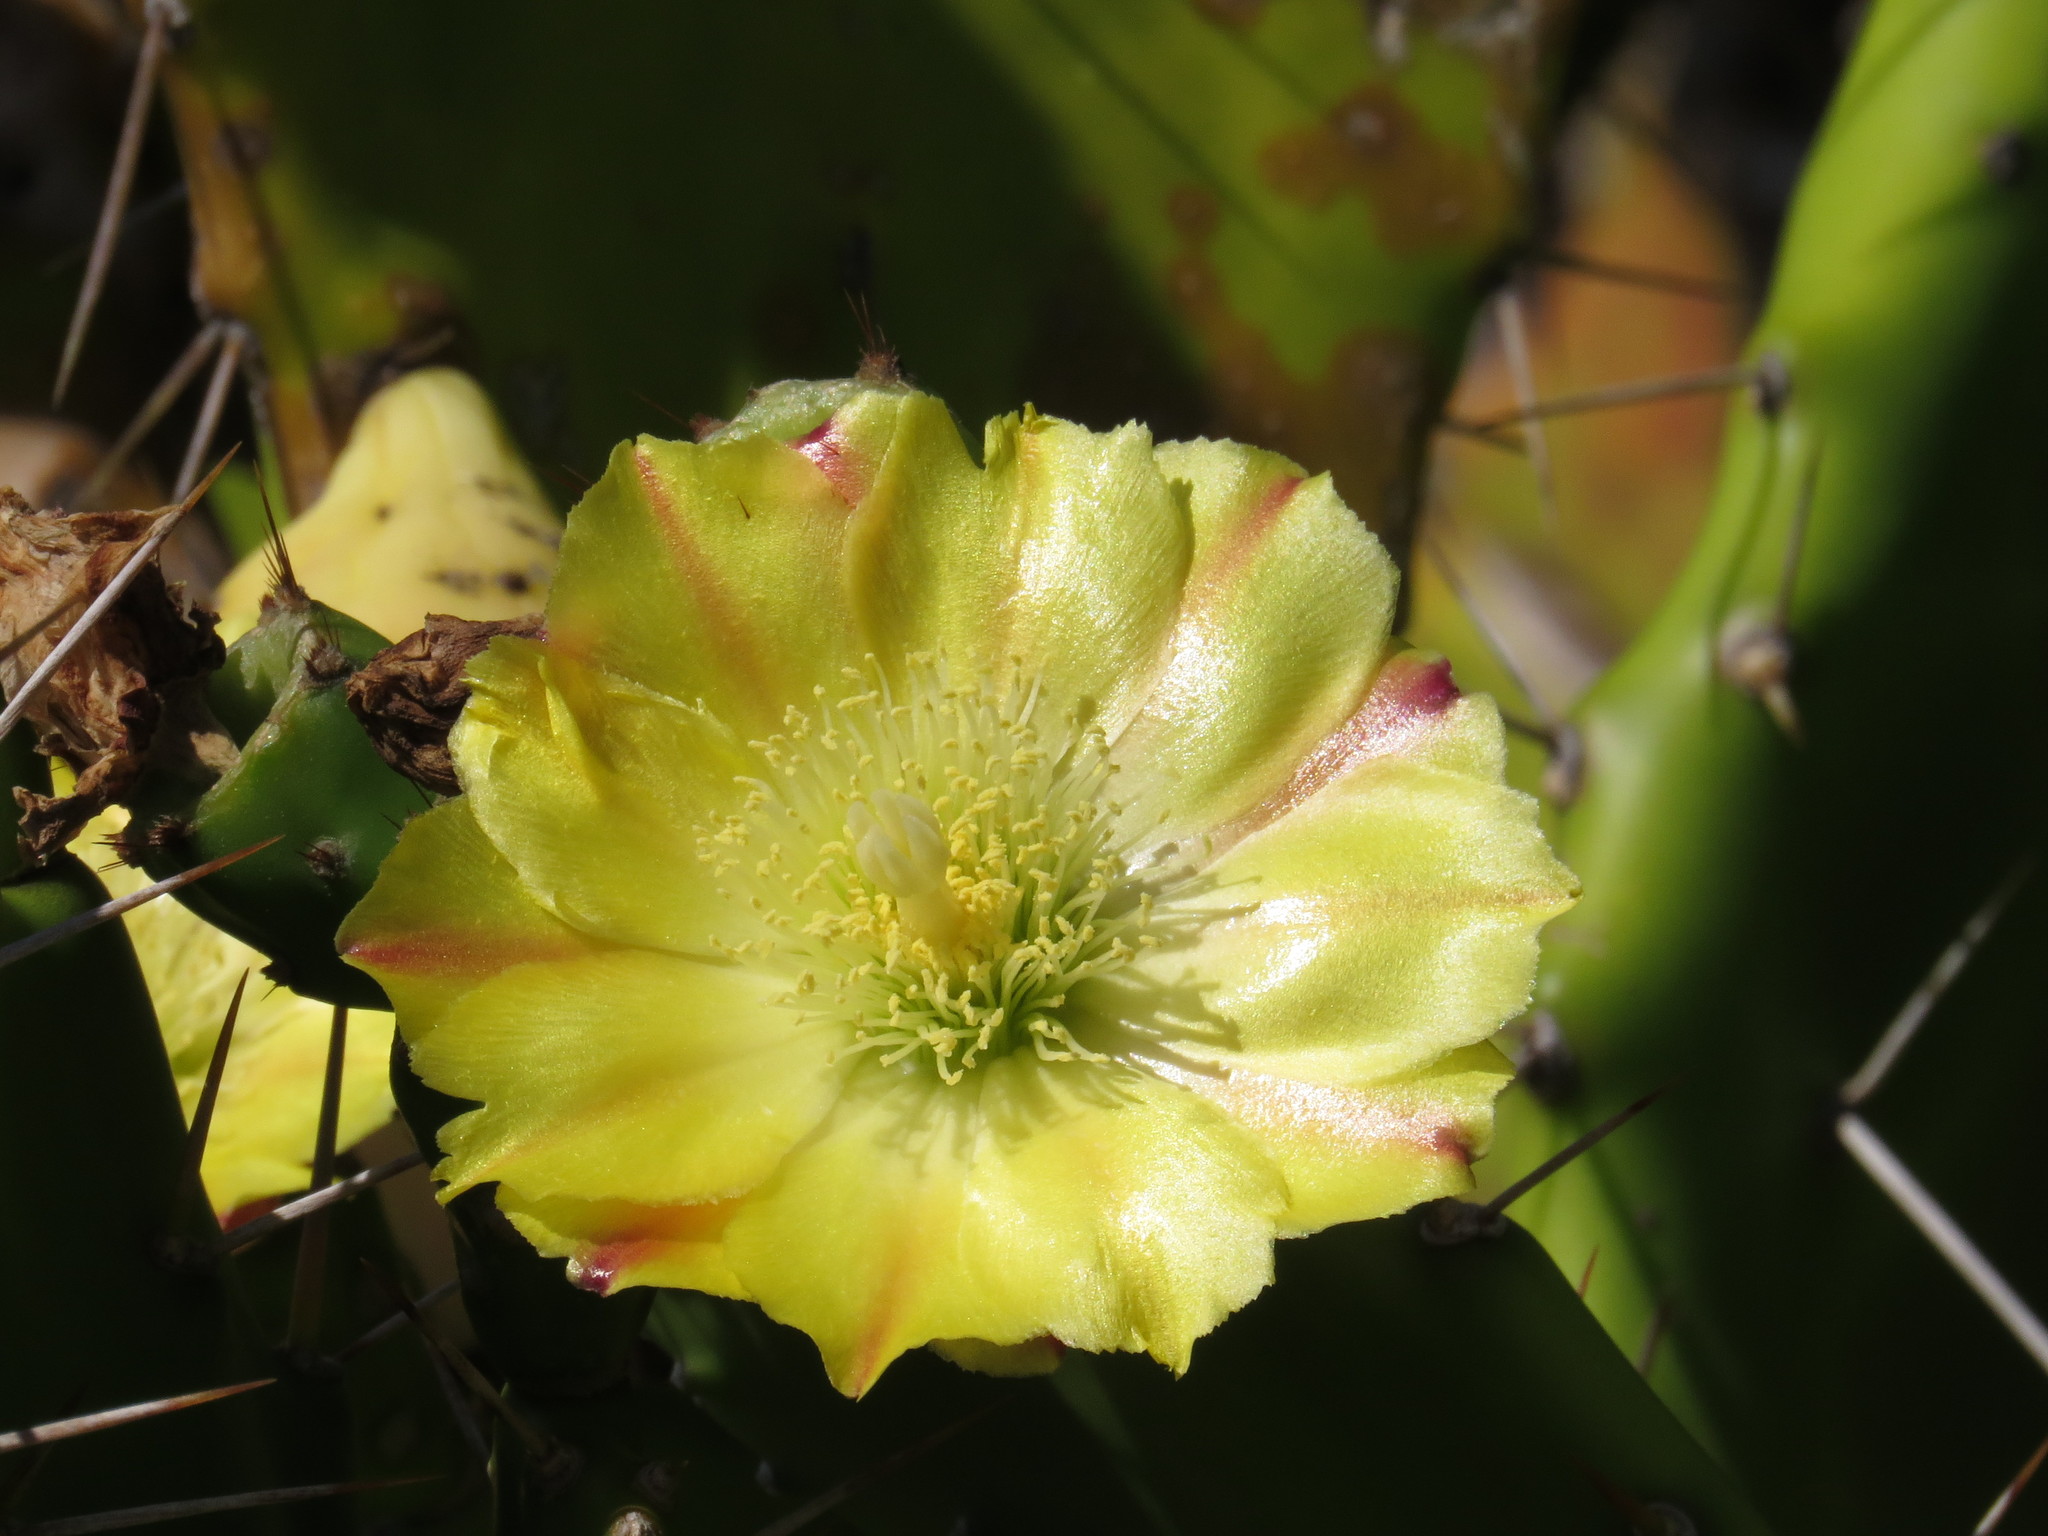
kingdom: Plantae
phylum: Tracheophyta
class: Magnoliopsida
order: Caryophyllales
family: Cactaceae
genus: Opuntia
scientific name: Opuntia monacantha
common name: Common pricklypear
